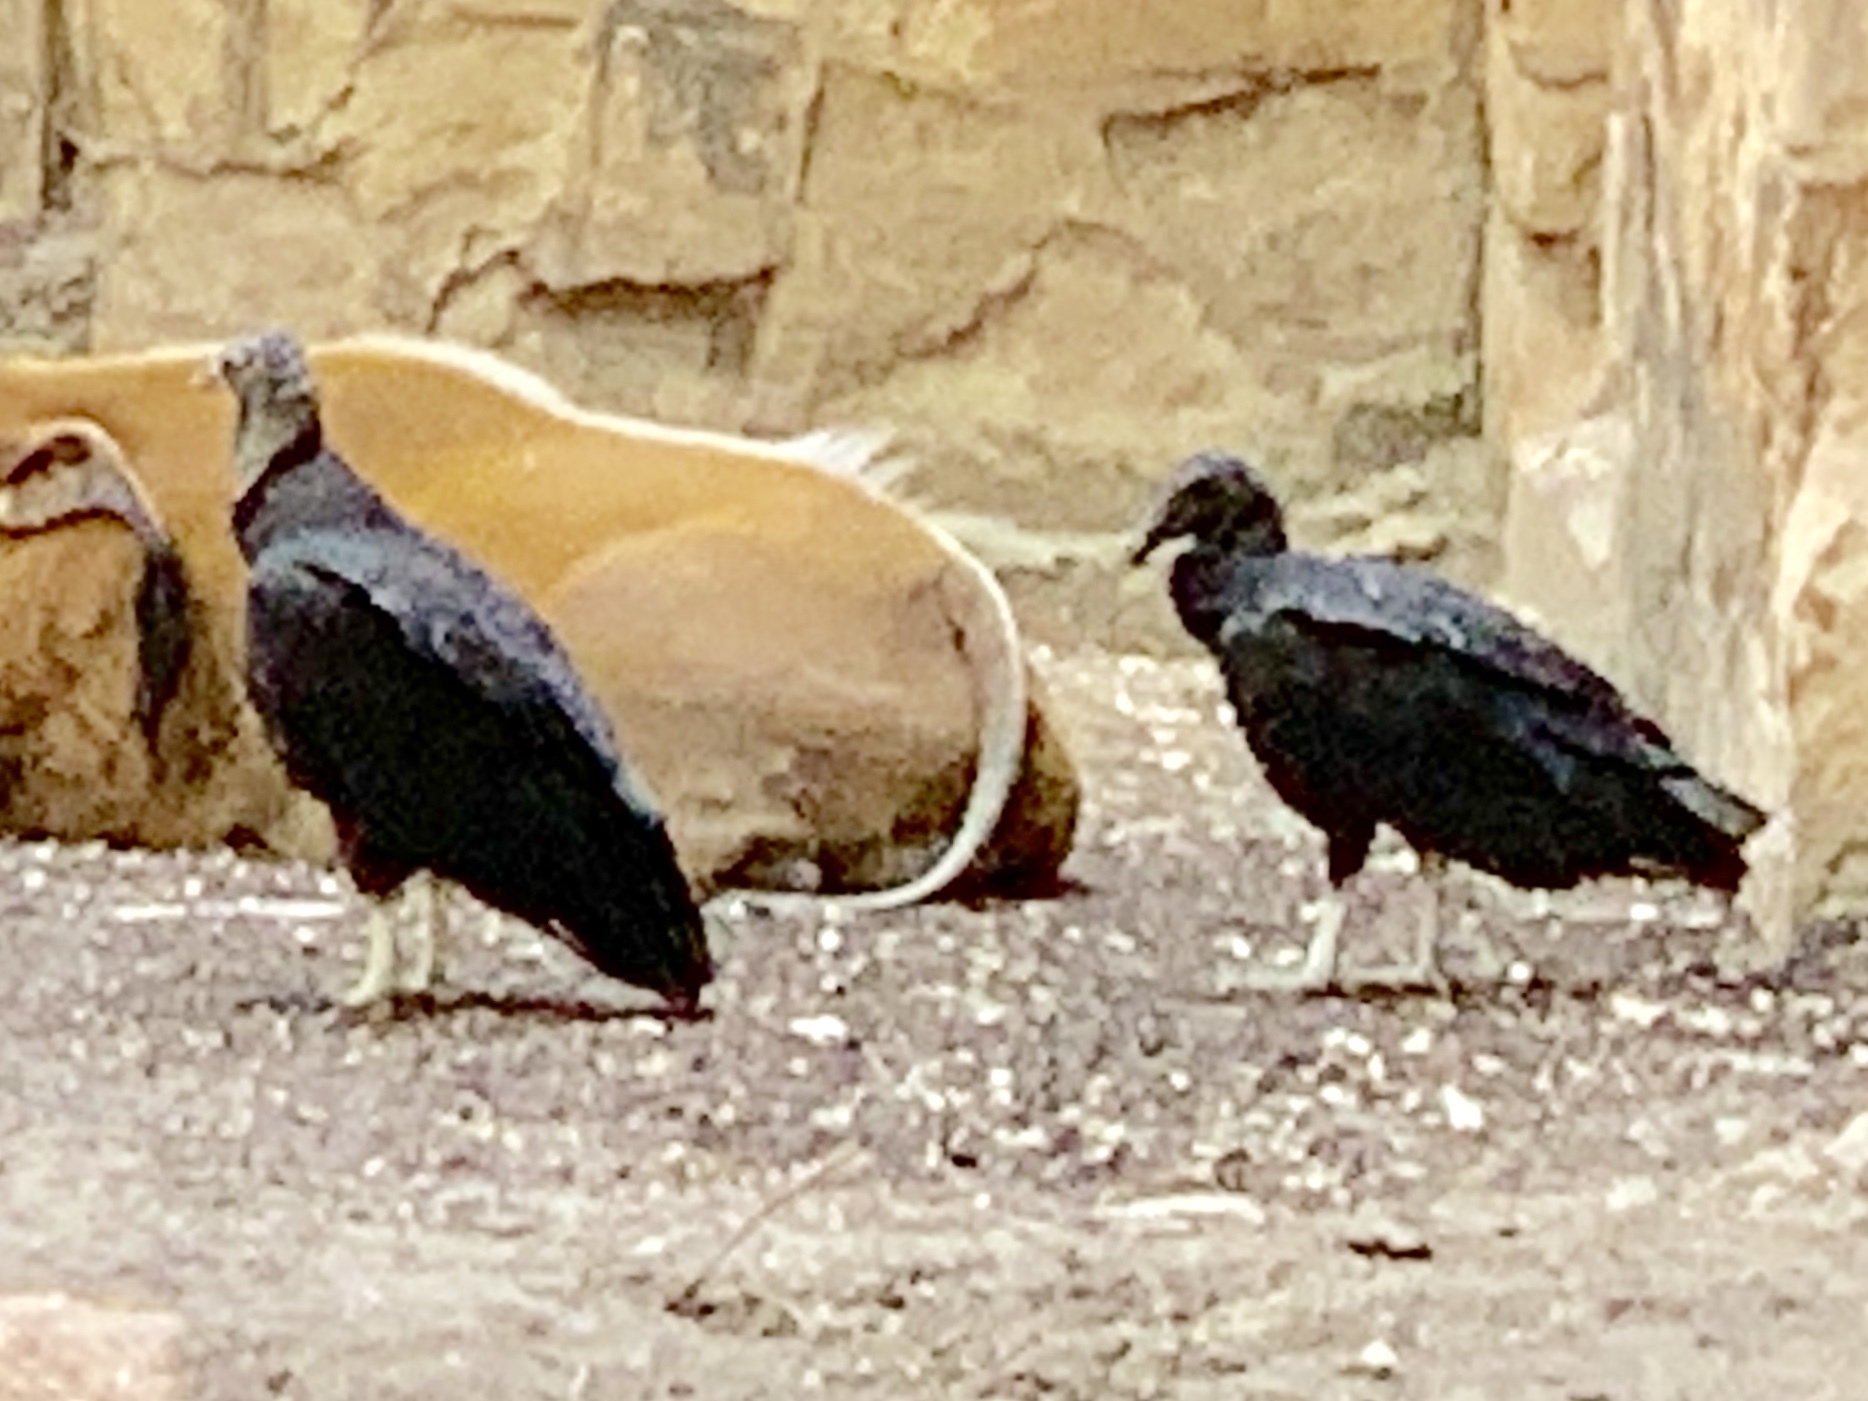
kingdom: Animalia
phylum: Chordata
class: Aves
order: Accipitriformes
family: Cathartidae
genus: Coragyps
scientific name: Coragyps atratus
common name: Black vulture
